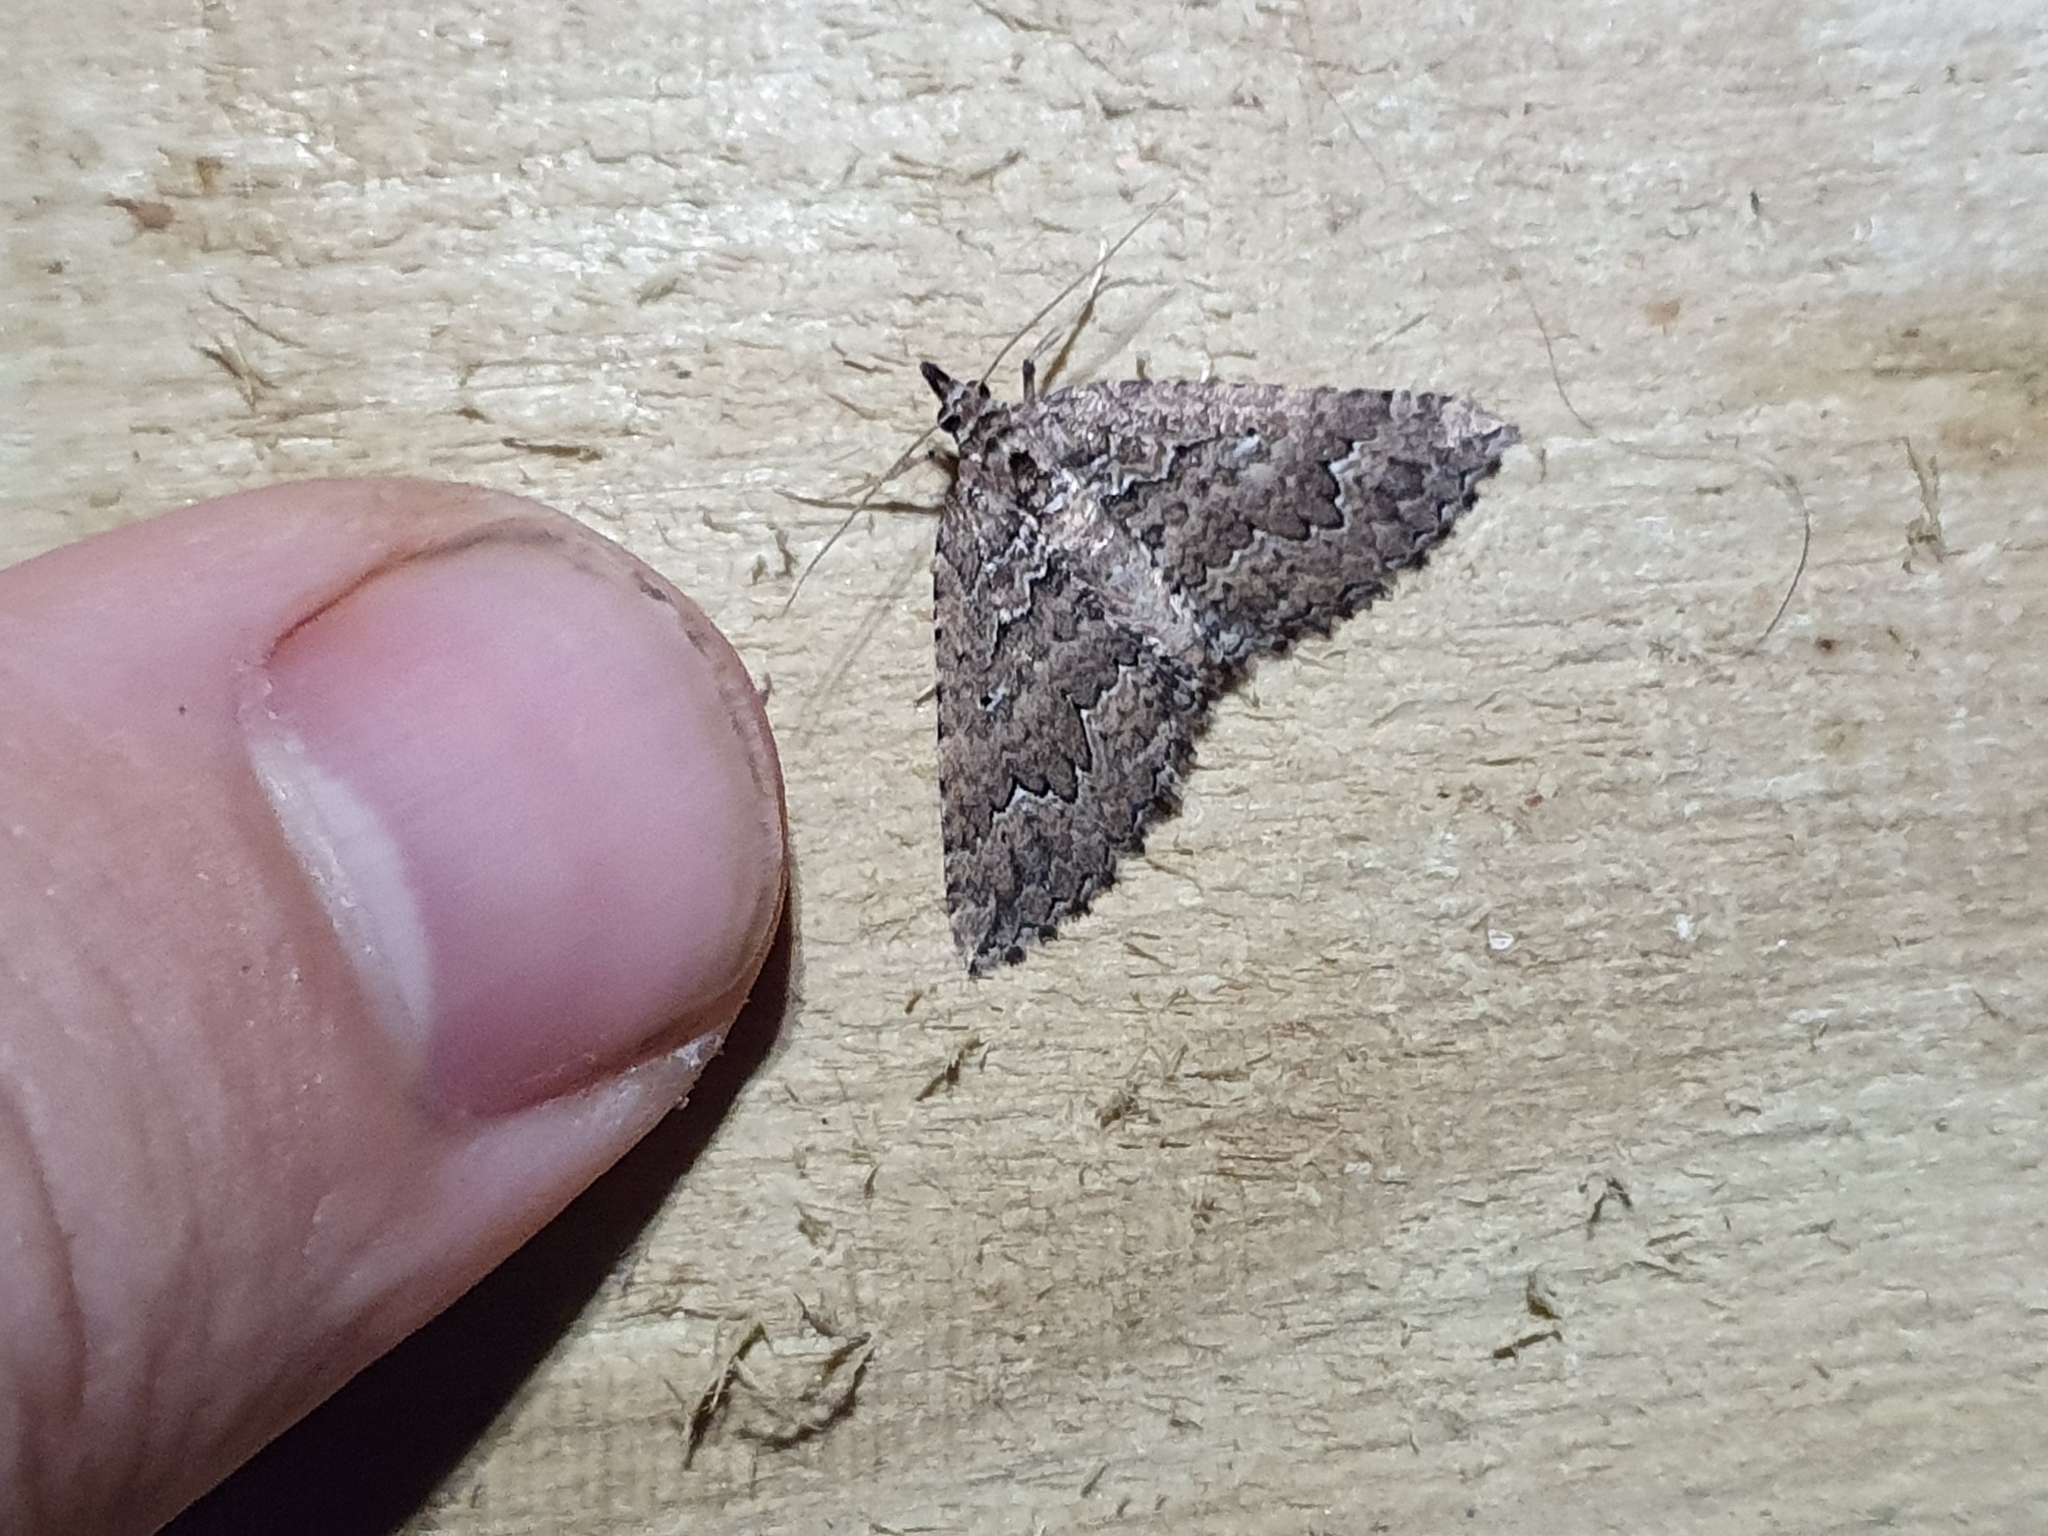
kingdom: Animalia
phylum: Arthropoda
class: Insecta
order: Lepidoptera
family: Geometridae
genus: Austrocidaria
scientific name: Austrocidaria lithurga
